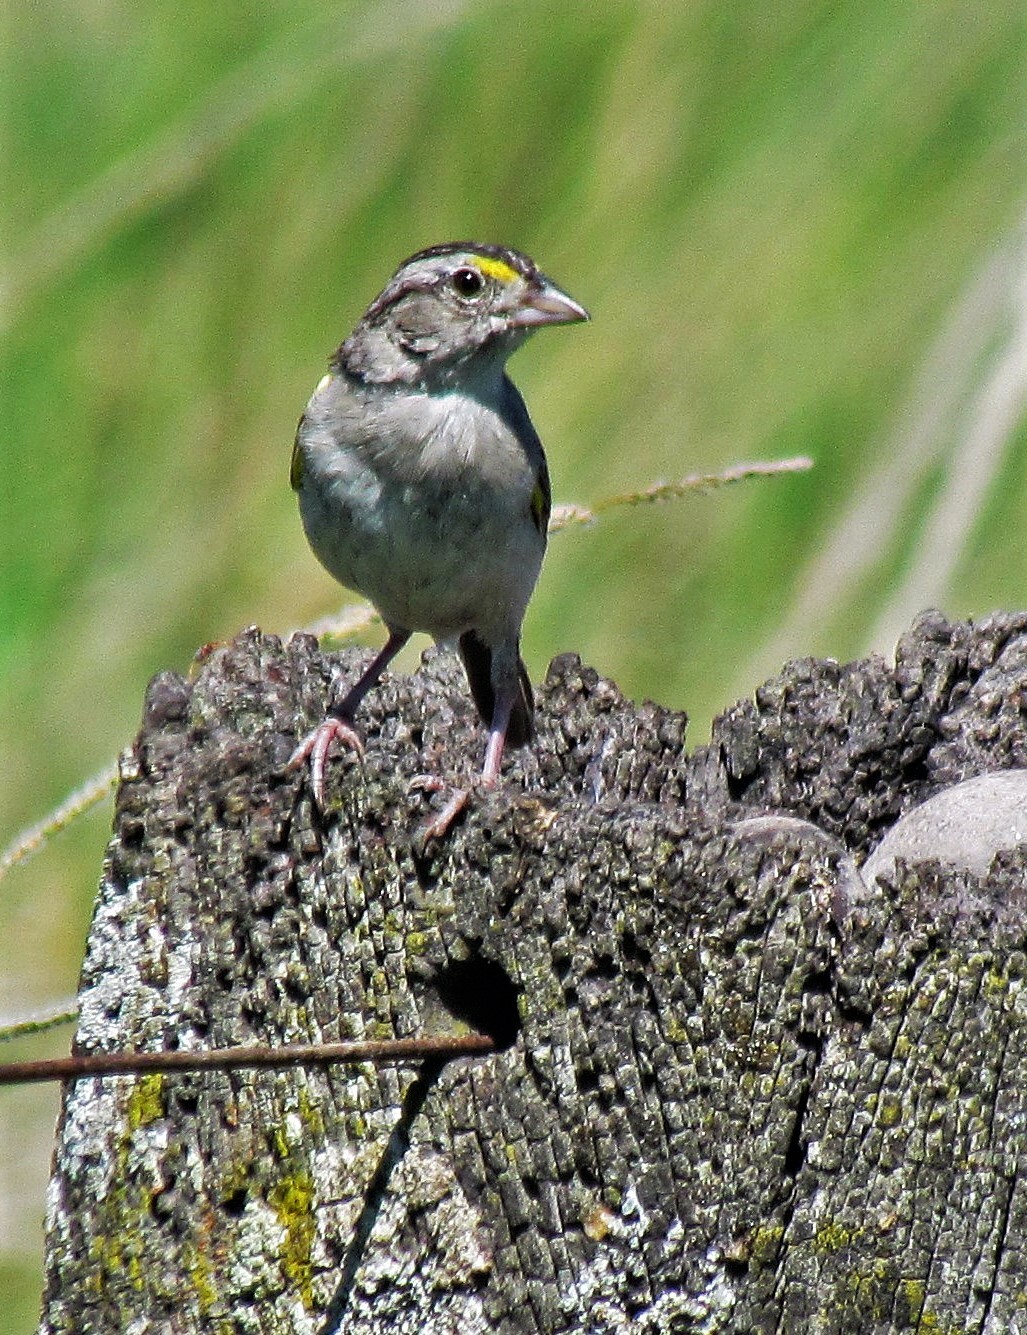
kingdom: Animalia
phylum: Chordata
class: Aves
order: Passeriformes
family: Passerellidae
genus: Ammodramus
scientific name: Ammodramus humeralis
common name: Grassland sparrow
